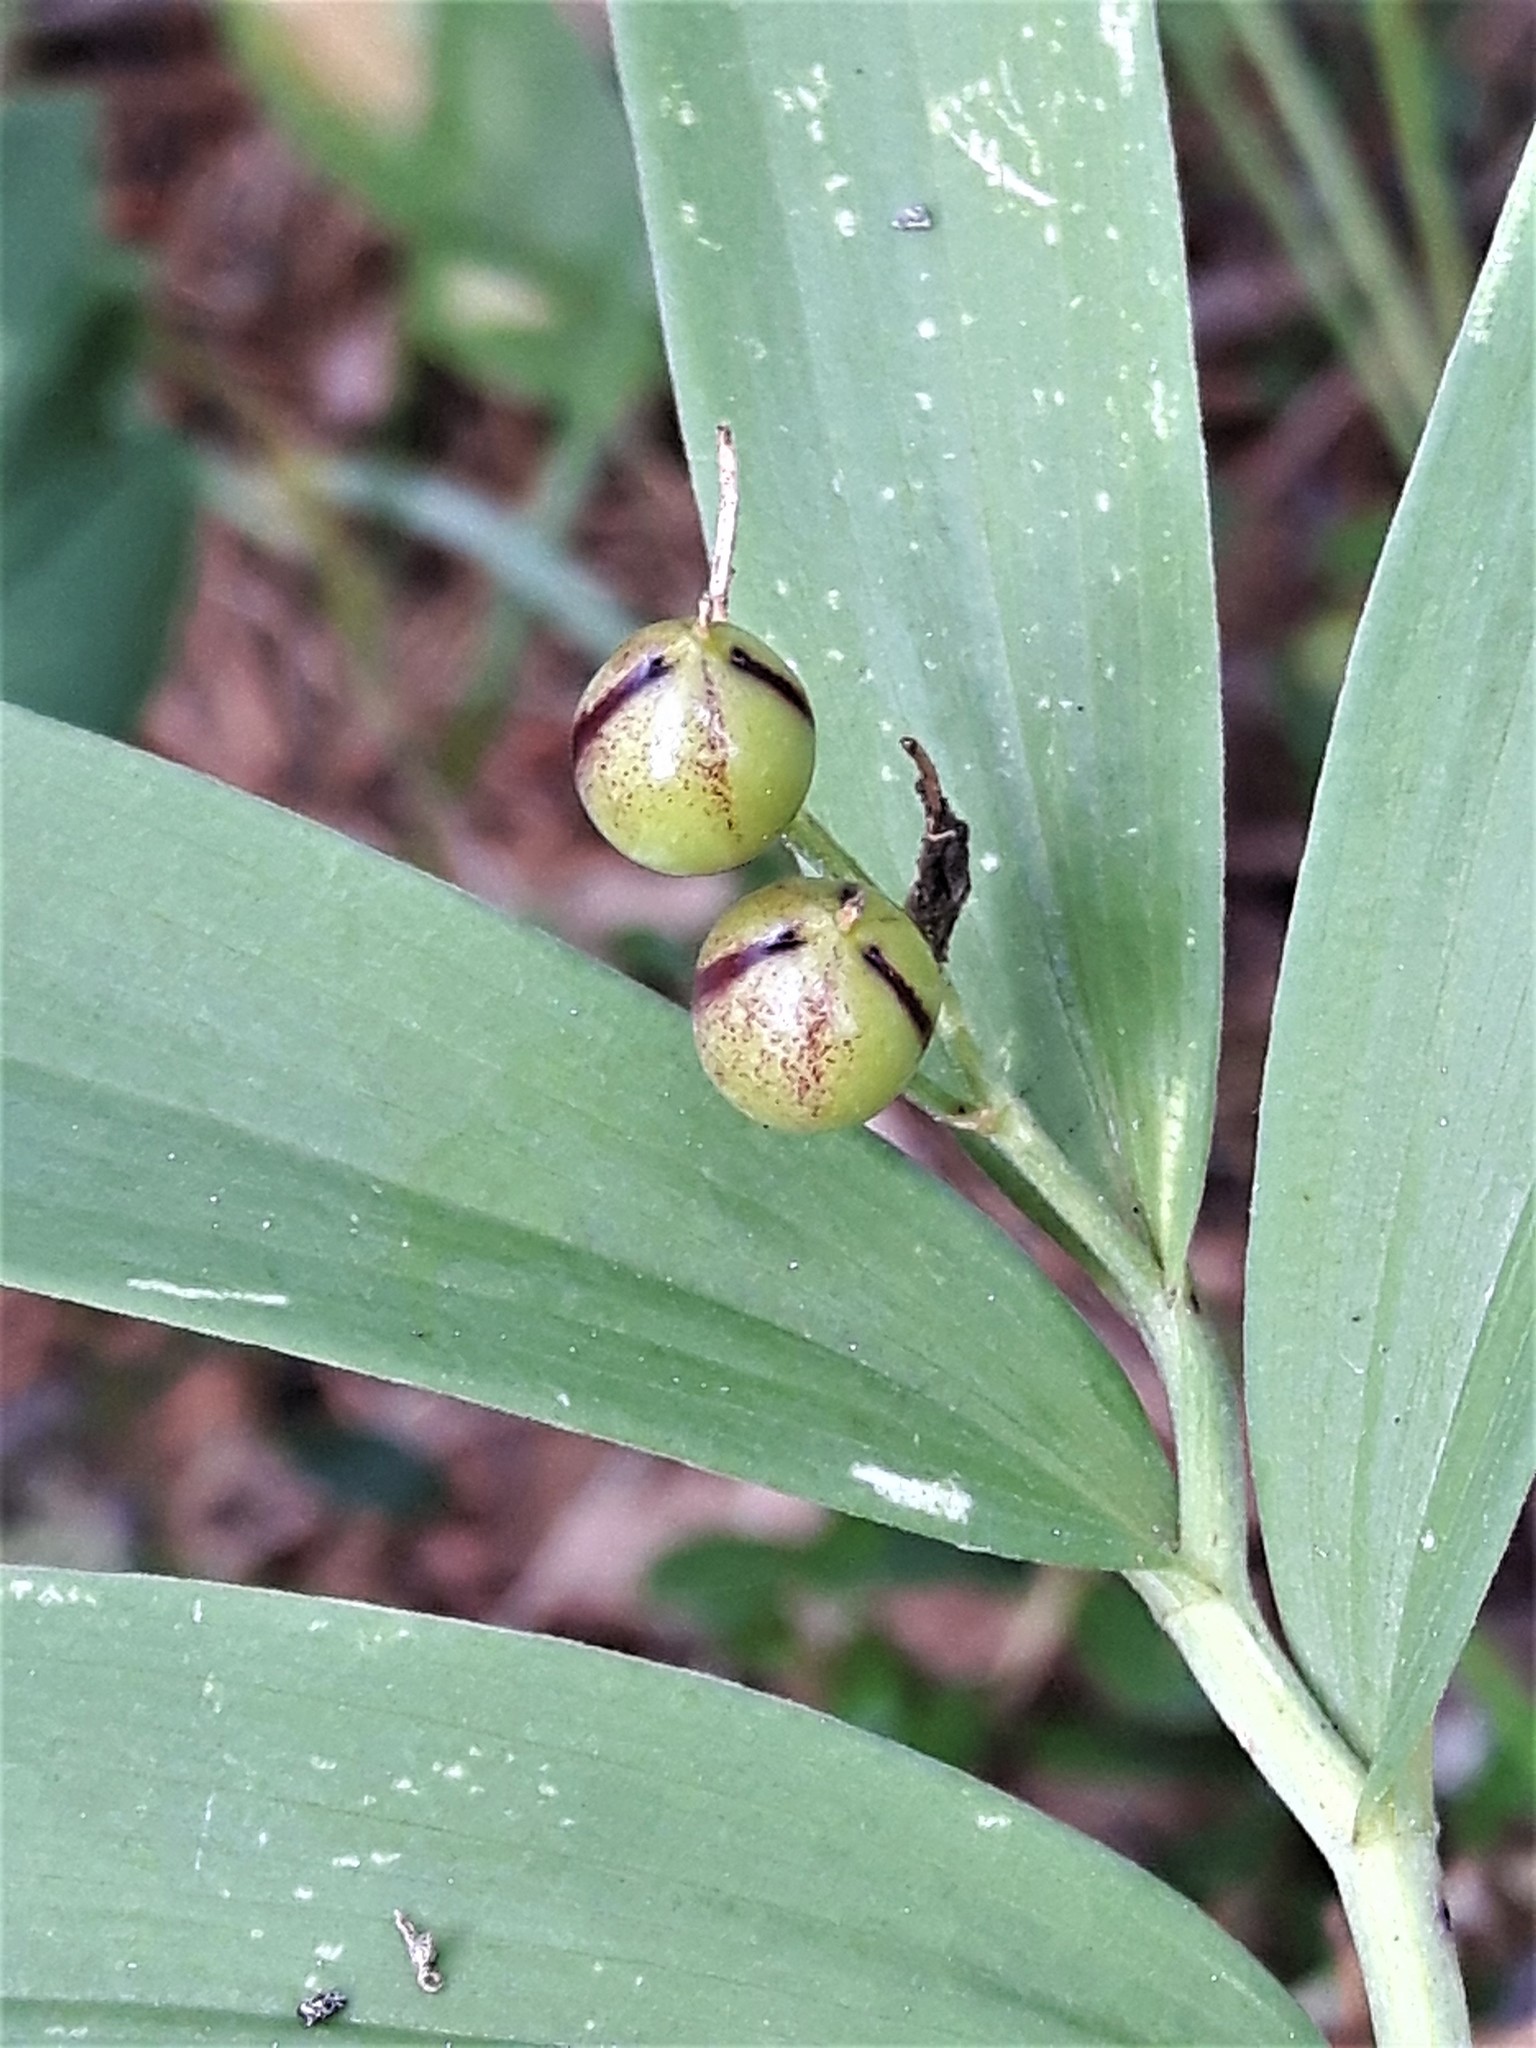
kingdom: Plantae
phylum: Tracheophyta
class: Liliopsida
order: Asparagales
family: Asparagaceae
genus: Maianthemum
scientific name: Maianthemum stellatum
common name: Little false solomon's seal
